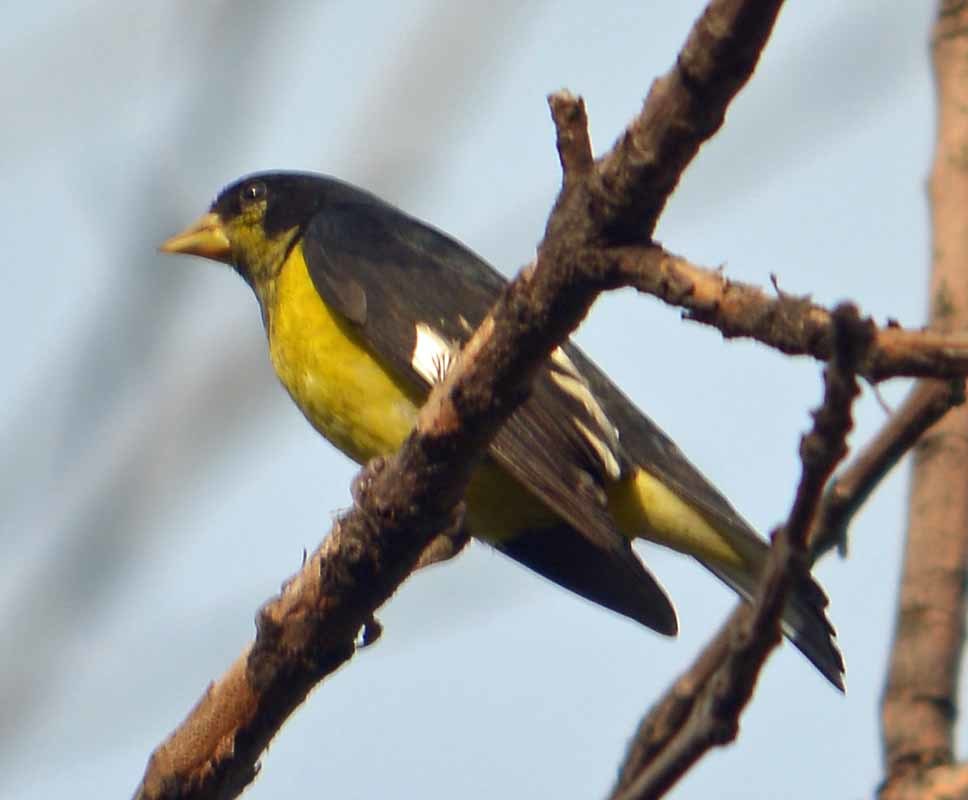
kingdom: Animalia
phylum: Chordata
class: Aves
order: Passeriformes
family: Fringillidae
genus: Spinus
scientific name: Spinus psaltria
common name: Lesser goldfinch
